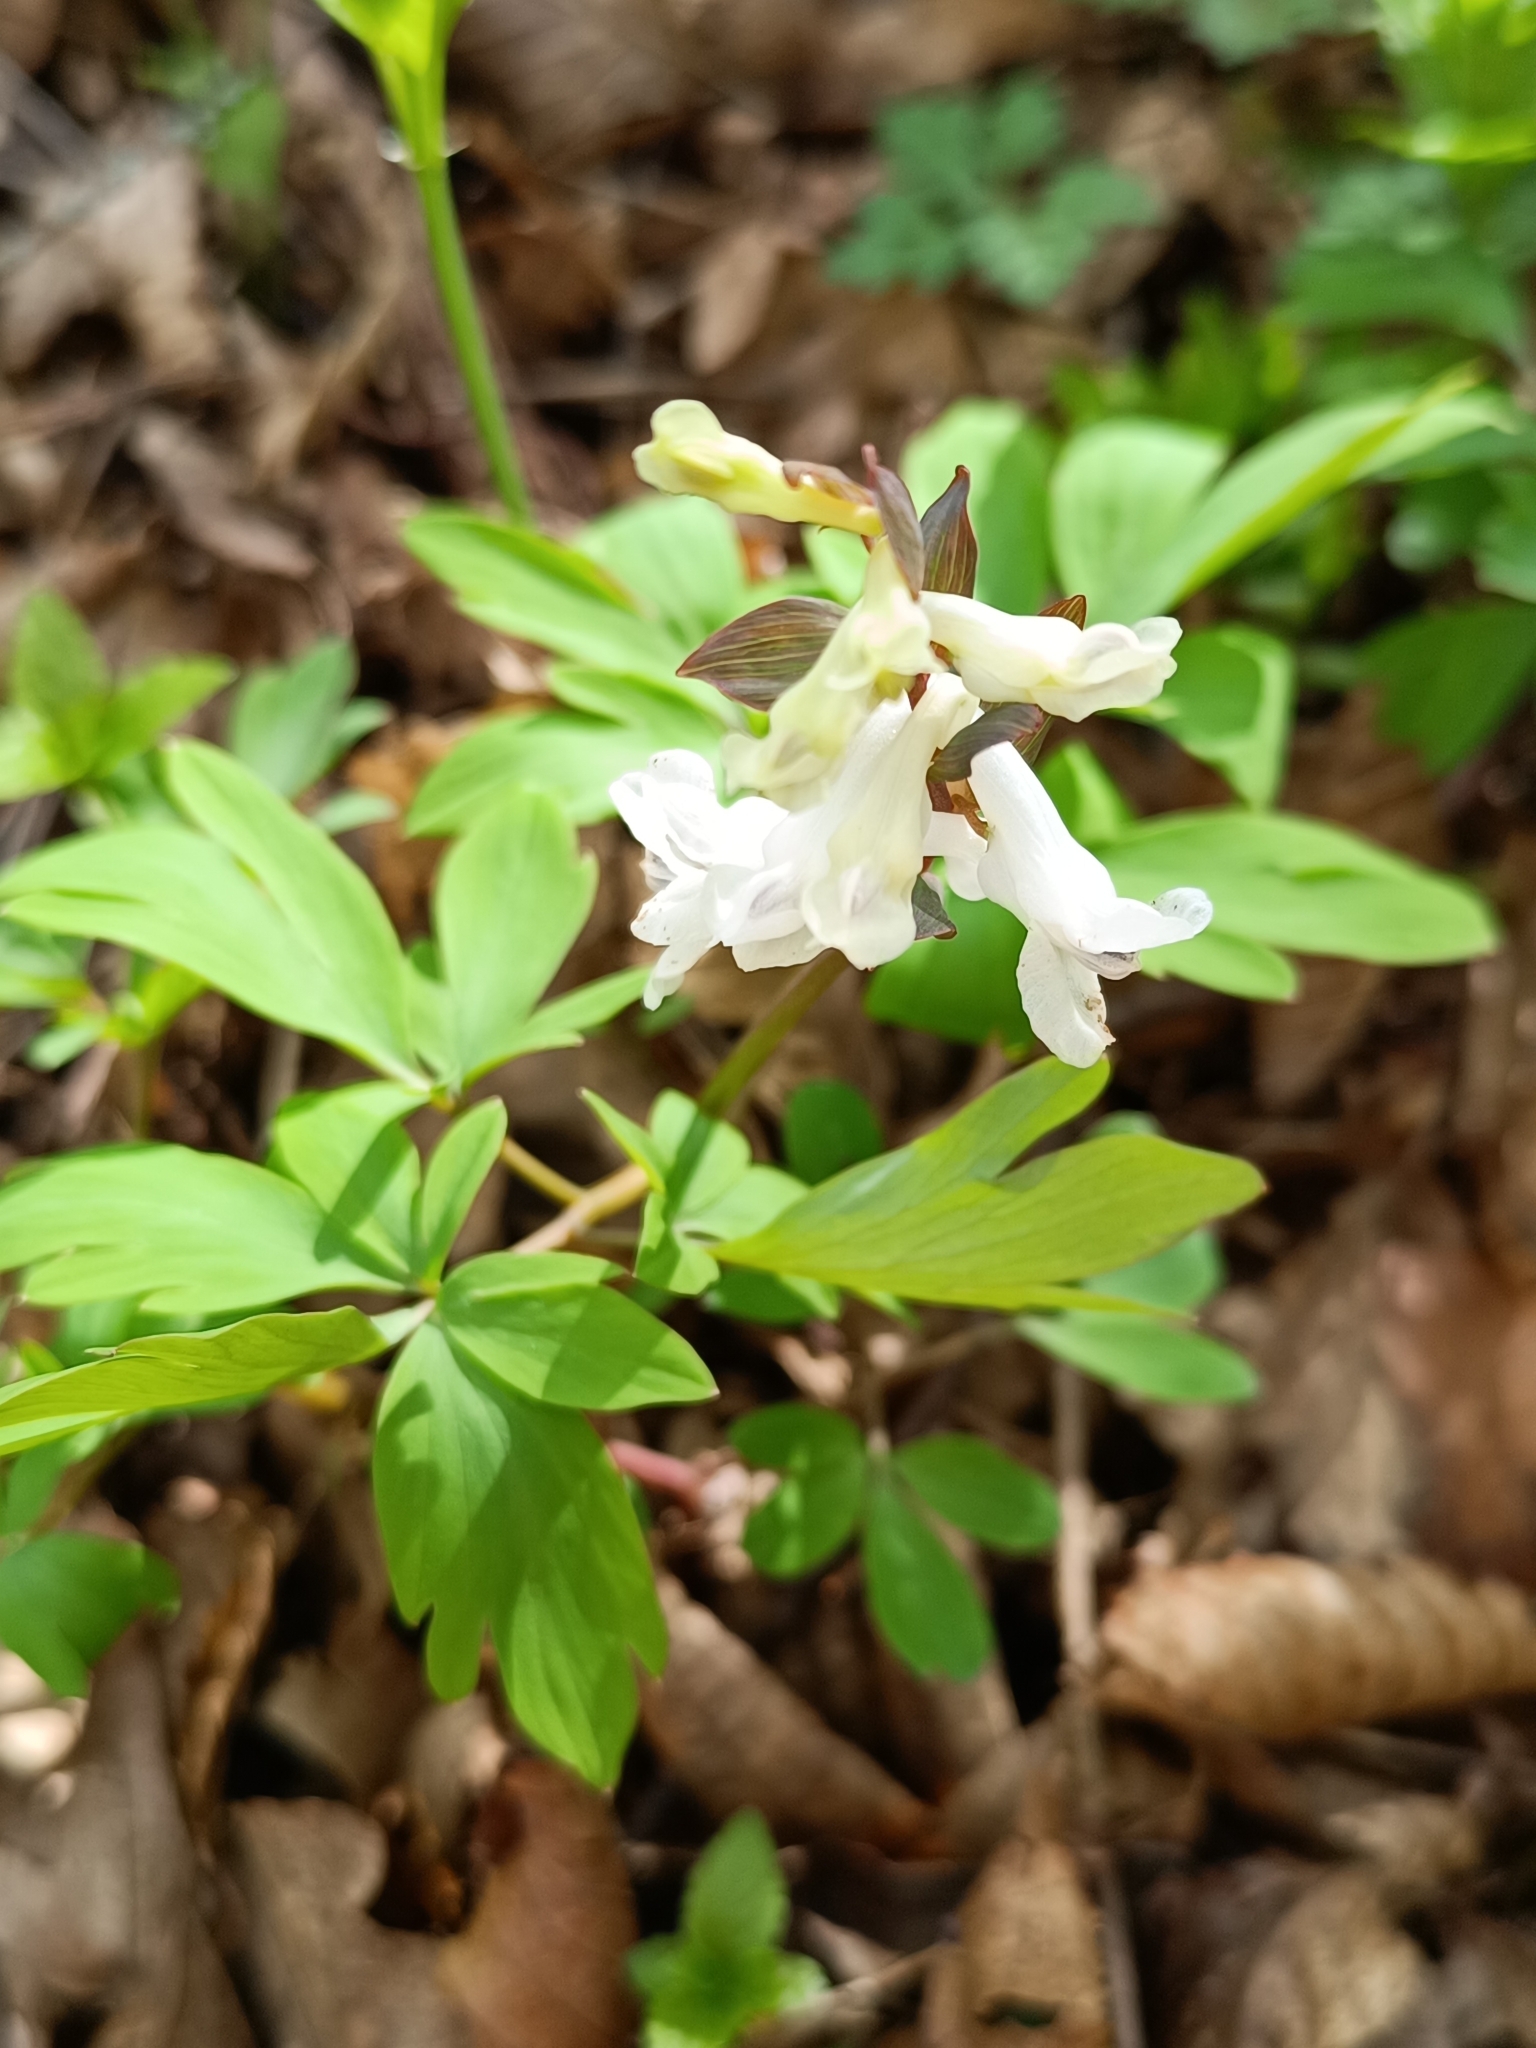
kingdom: Plantae
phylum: Tracheophyta
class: Magnoliopsida
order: Ranunculales
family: Papaveraceae
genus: Corydalis
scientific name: Corydalis cava
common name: Hollowroot
